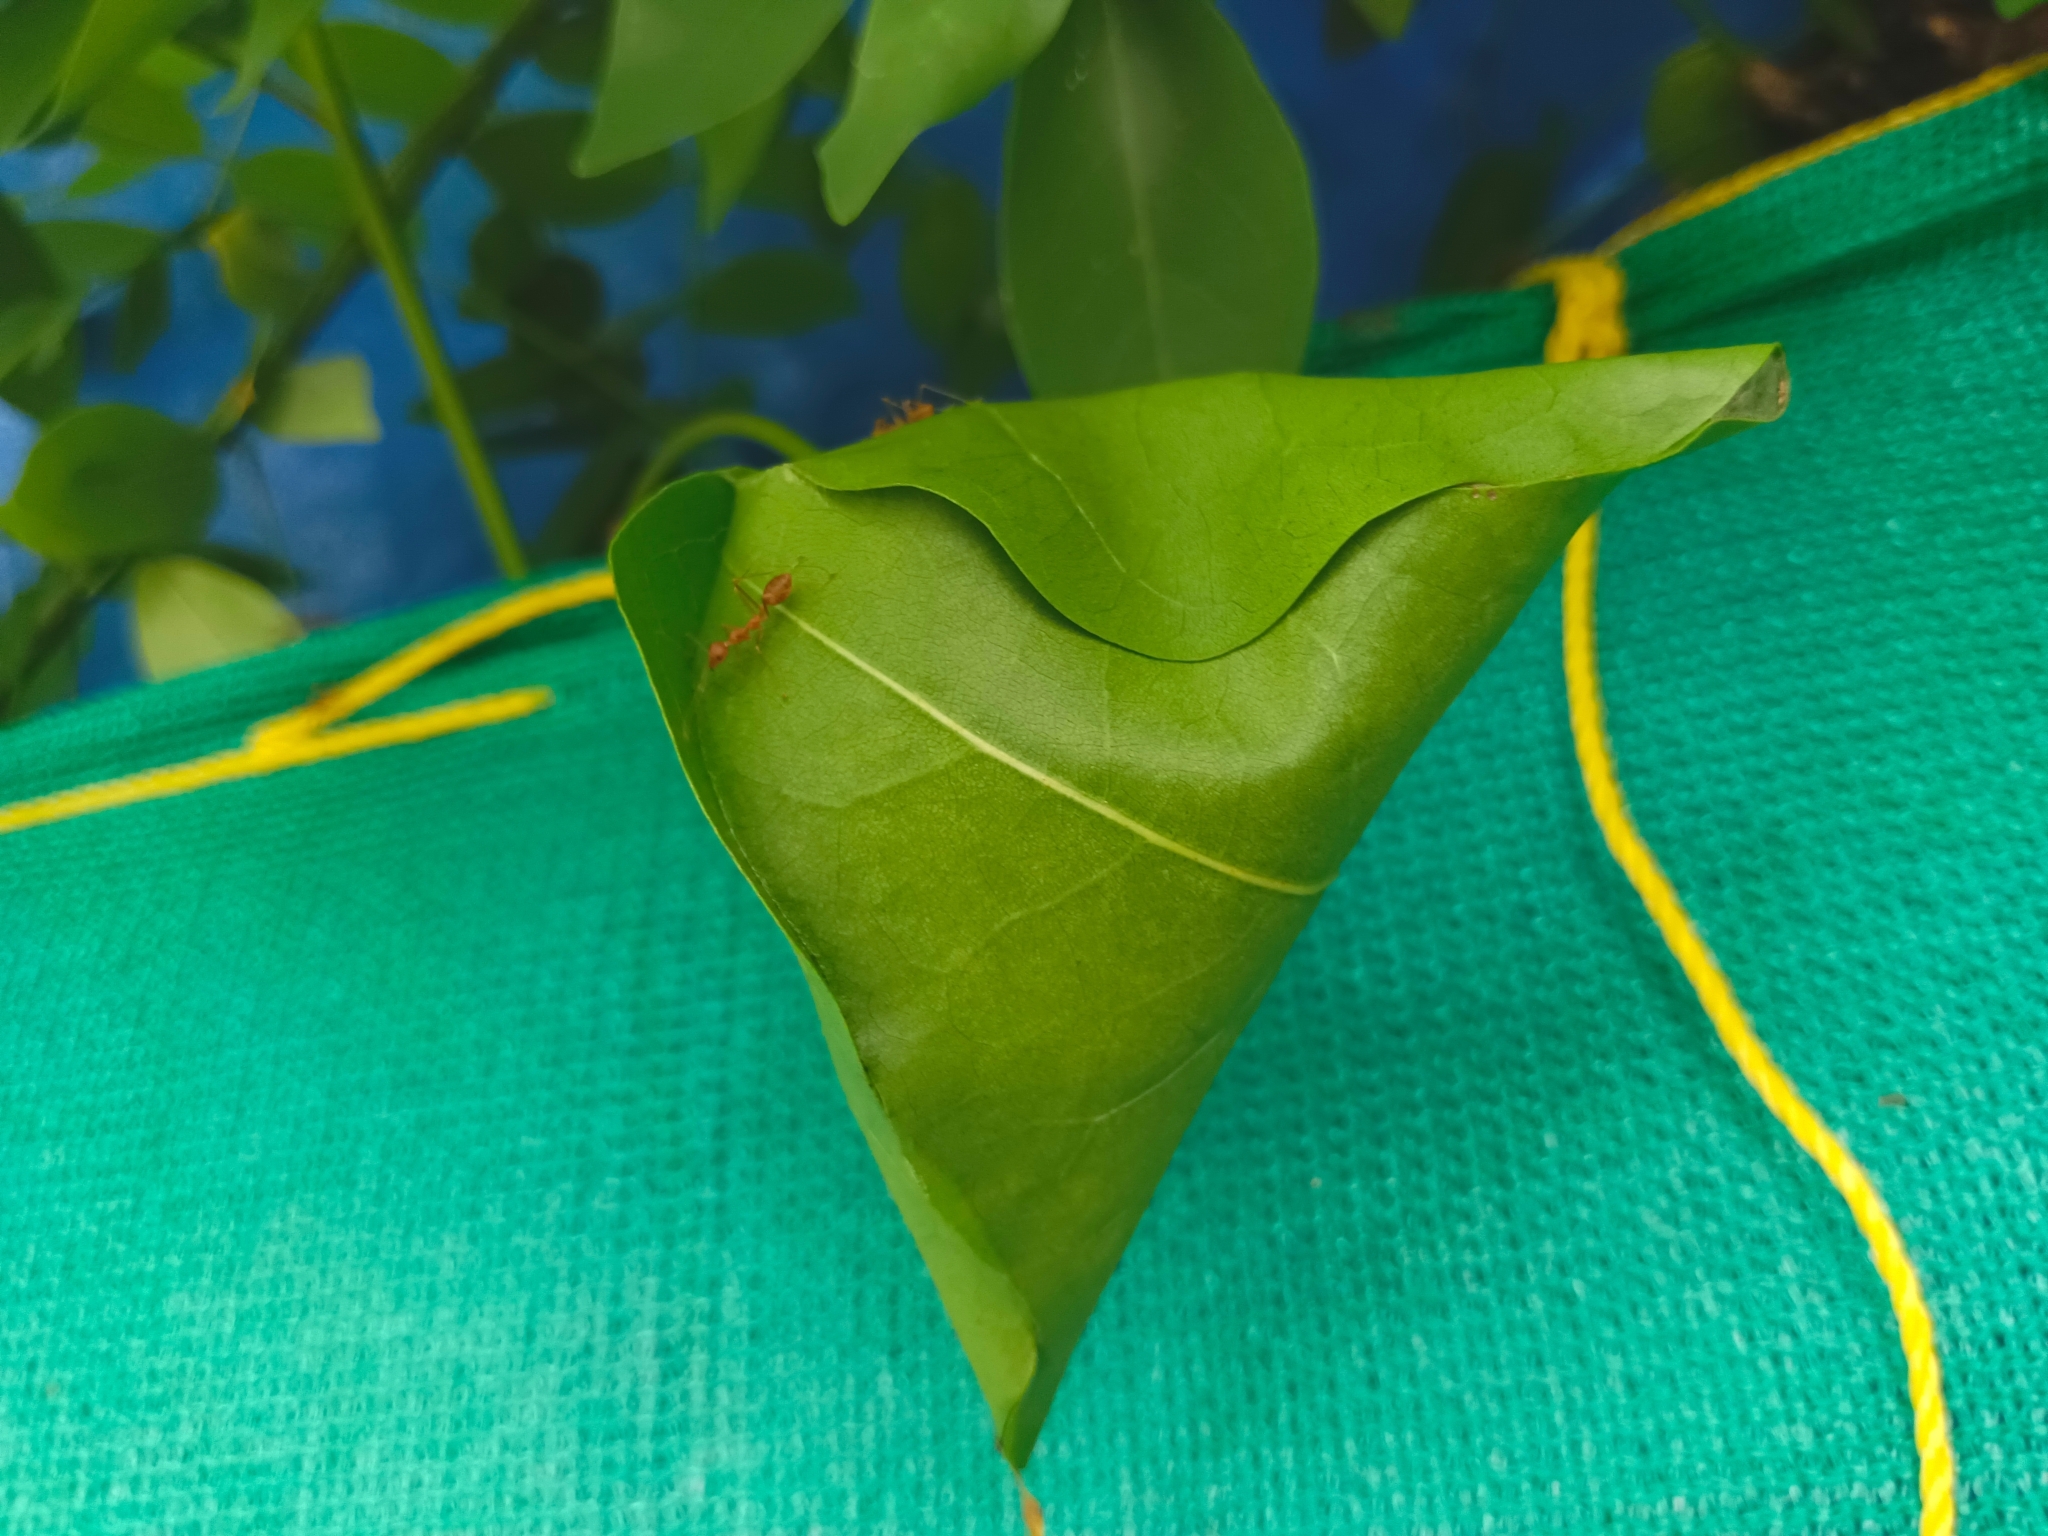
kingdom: Animalia
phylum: Arthropoda
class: Insecta
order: Hymenoptera
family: Formicidae
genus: Oecophylla
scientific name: Oecophylla smaragdina
